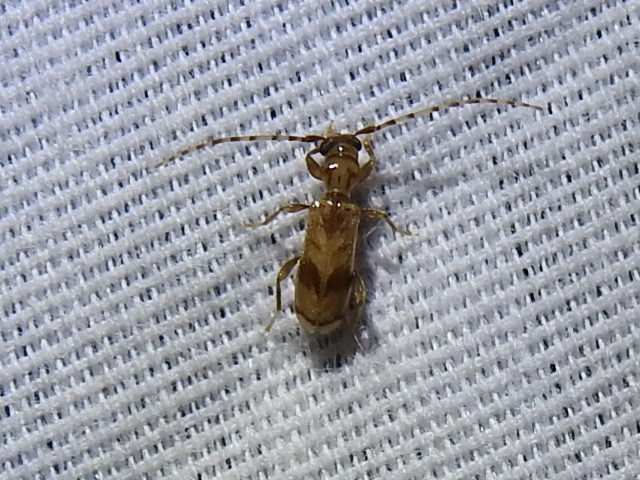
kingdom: Animalia
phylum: Arthropoda
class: Insecta
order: Coleoptera
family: Cerambycidae
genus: Obrium
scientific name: Obrium maculatum
